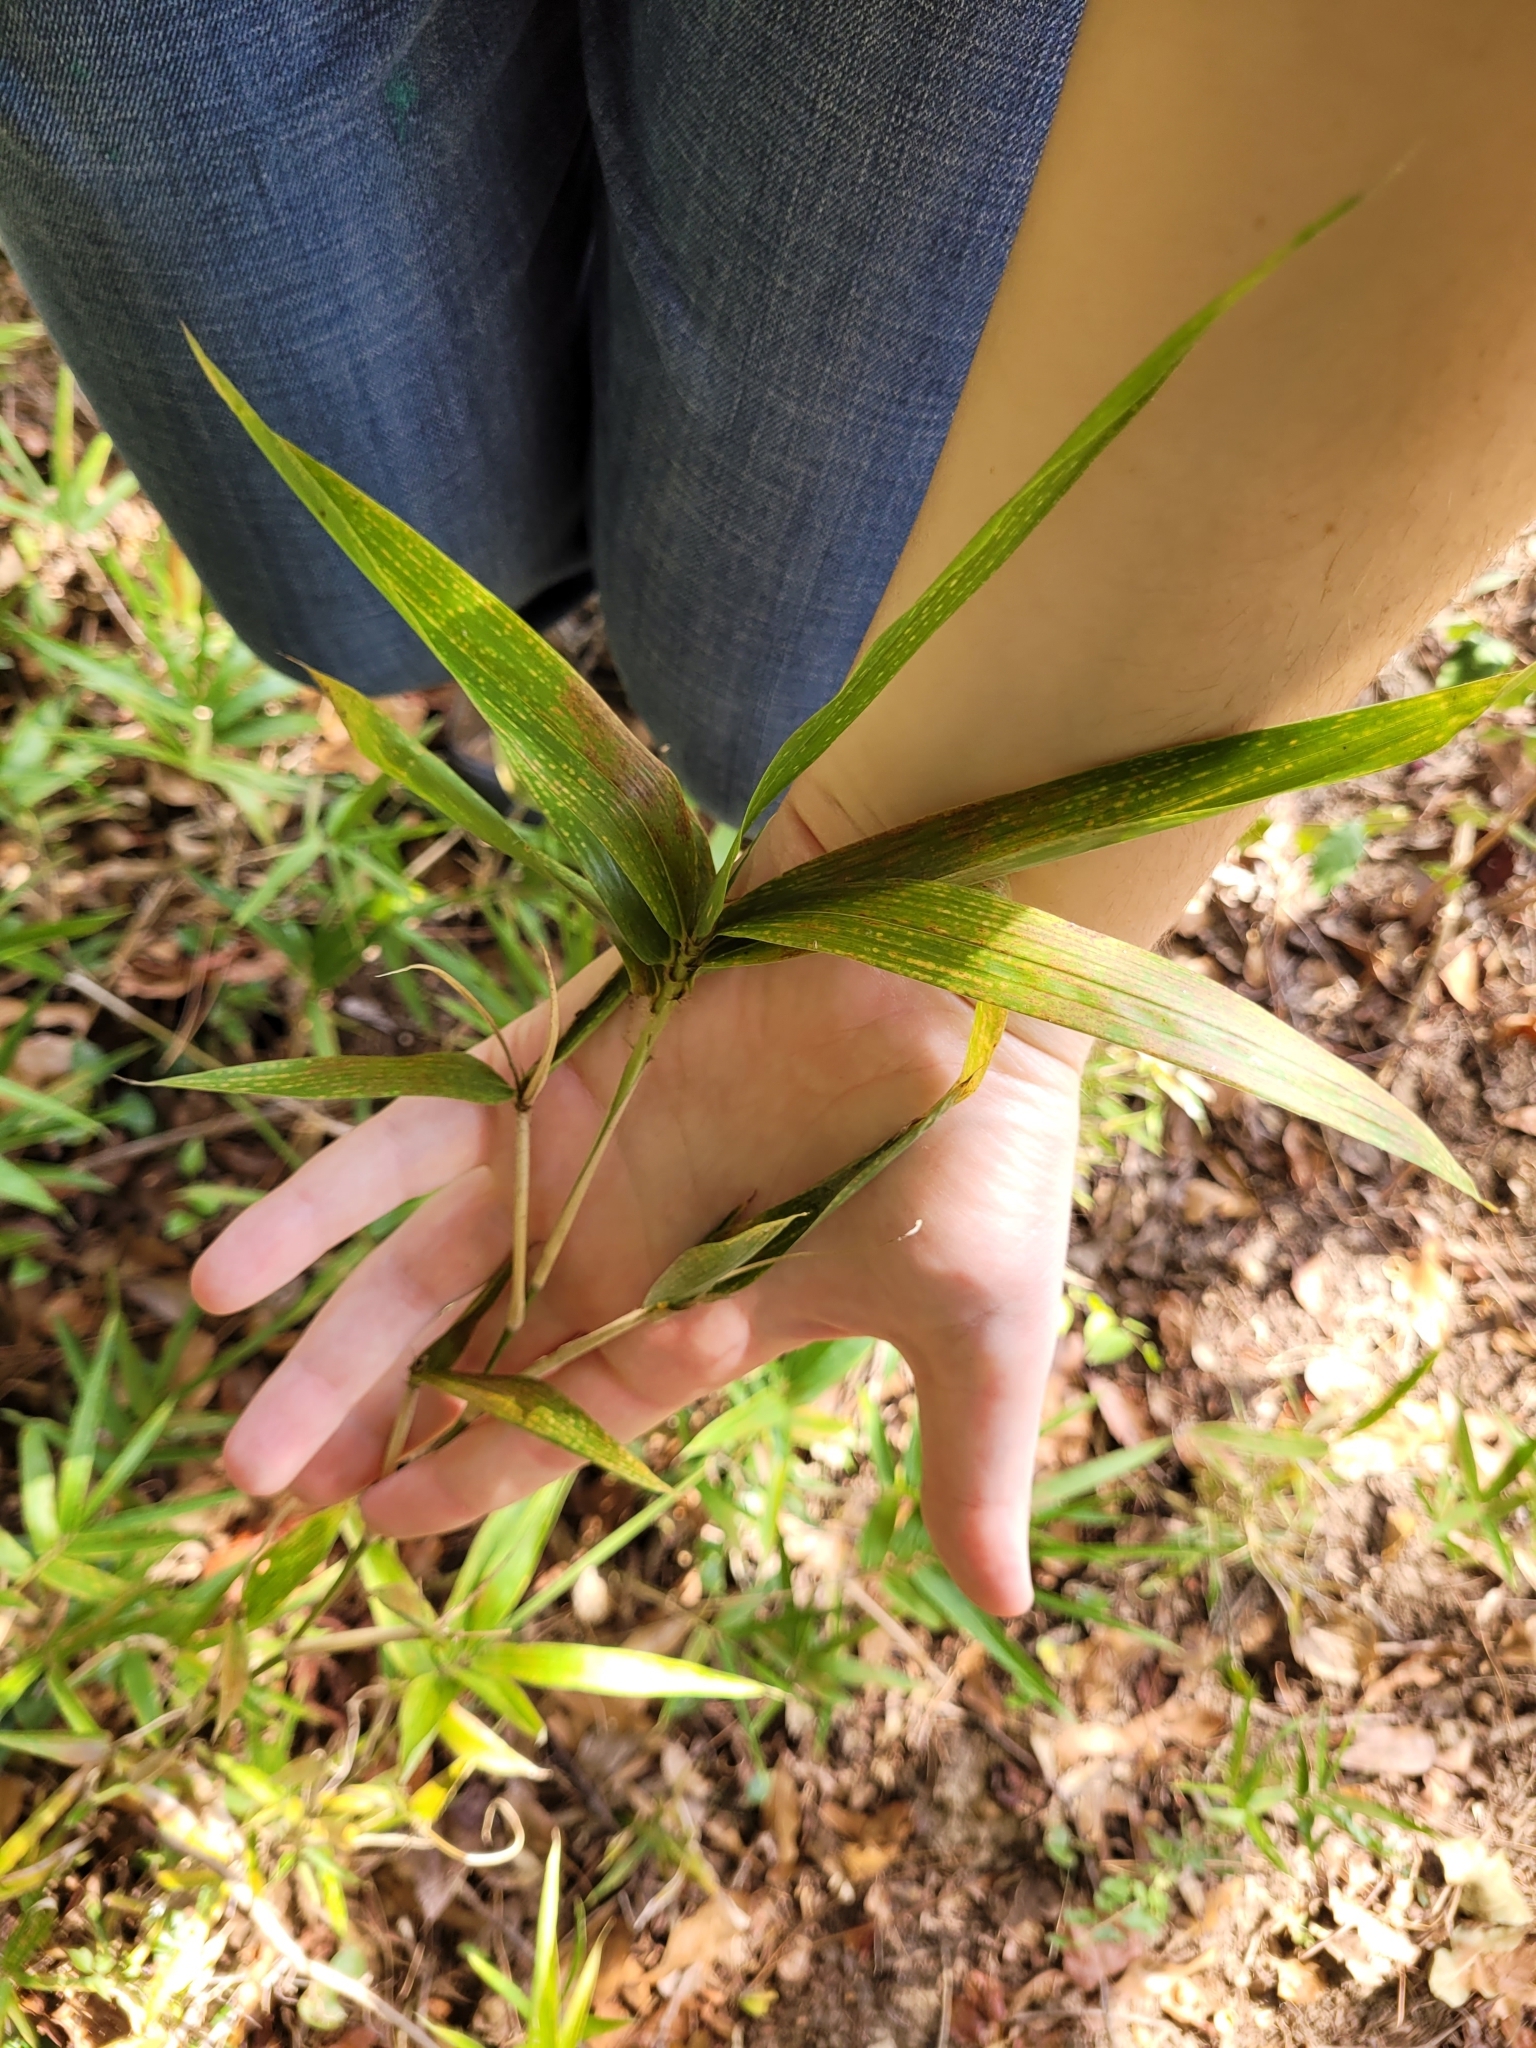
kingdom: Plantae
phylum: Tracheophyta
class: Liliopsida
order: Poales
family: Poaceae
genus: Arundinaria
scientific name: Arundinaria gigantea
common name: Giant cane
